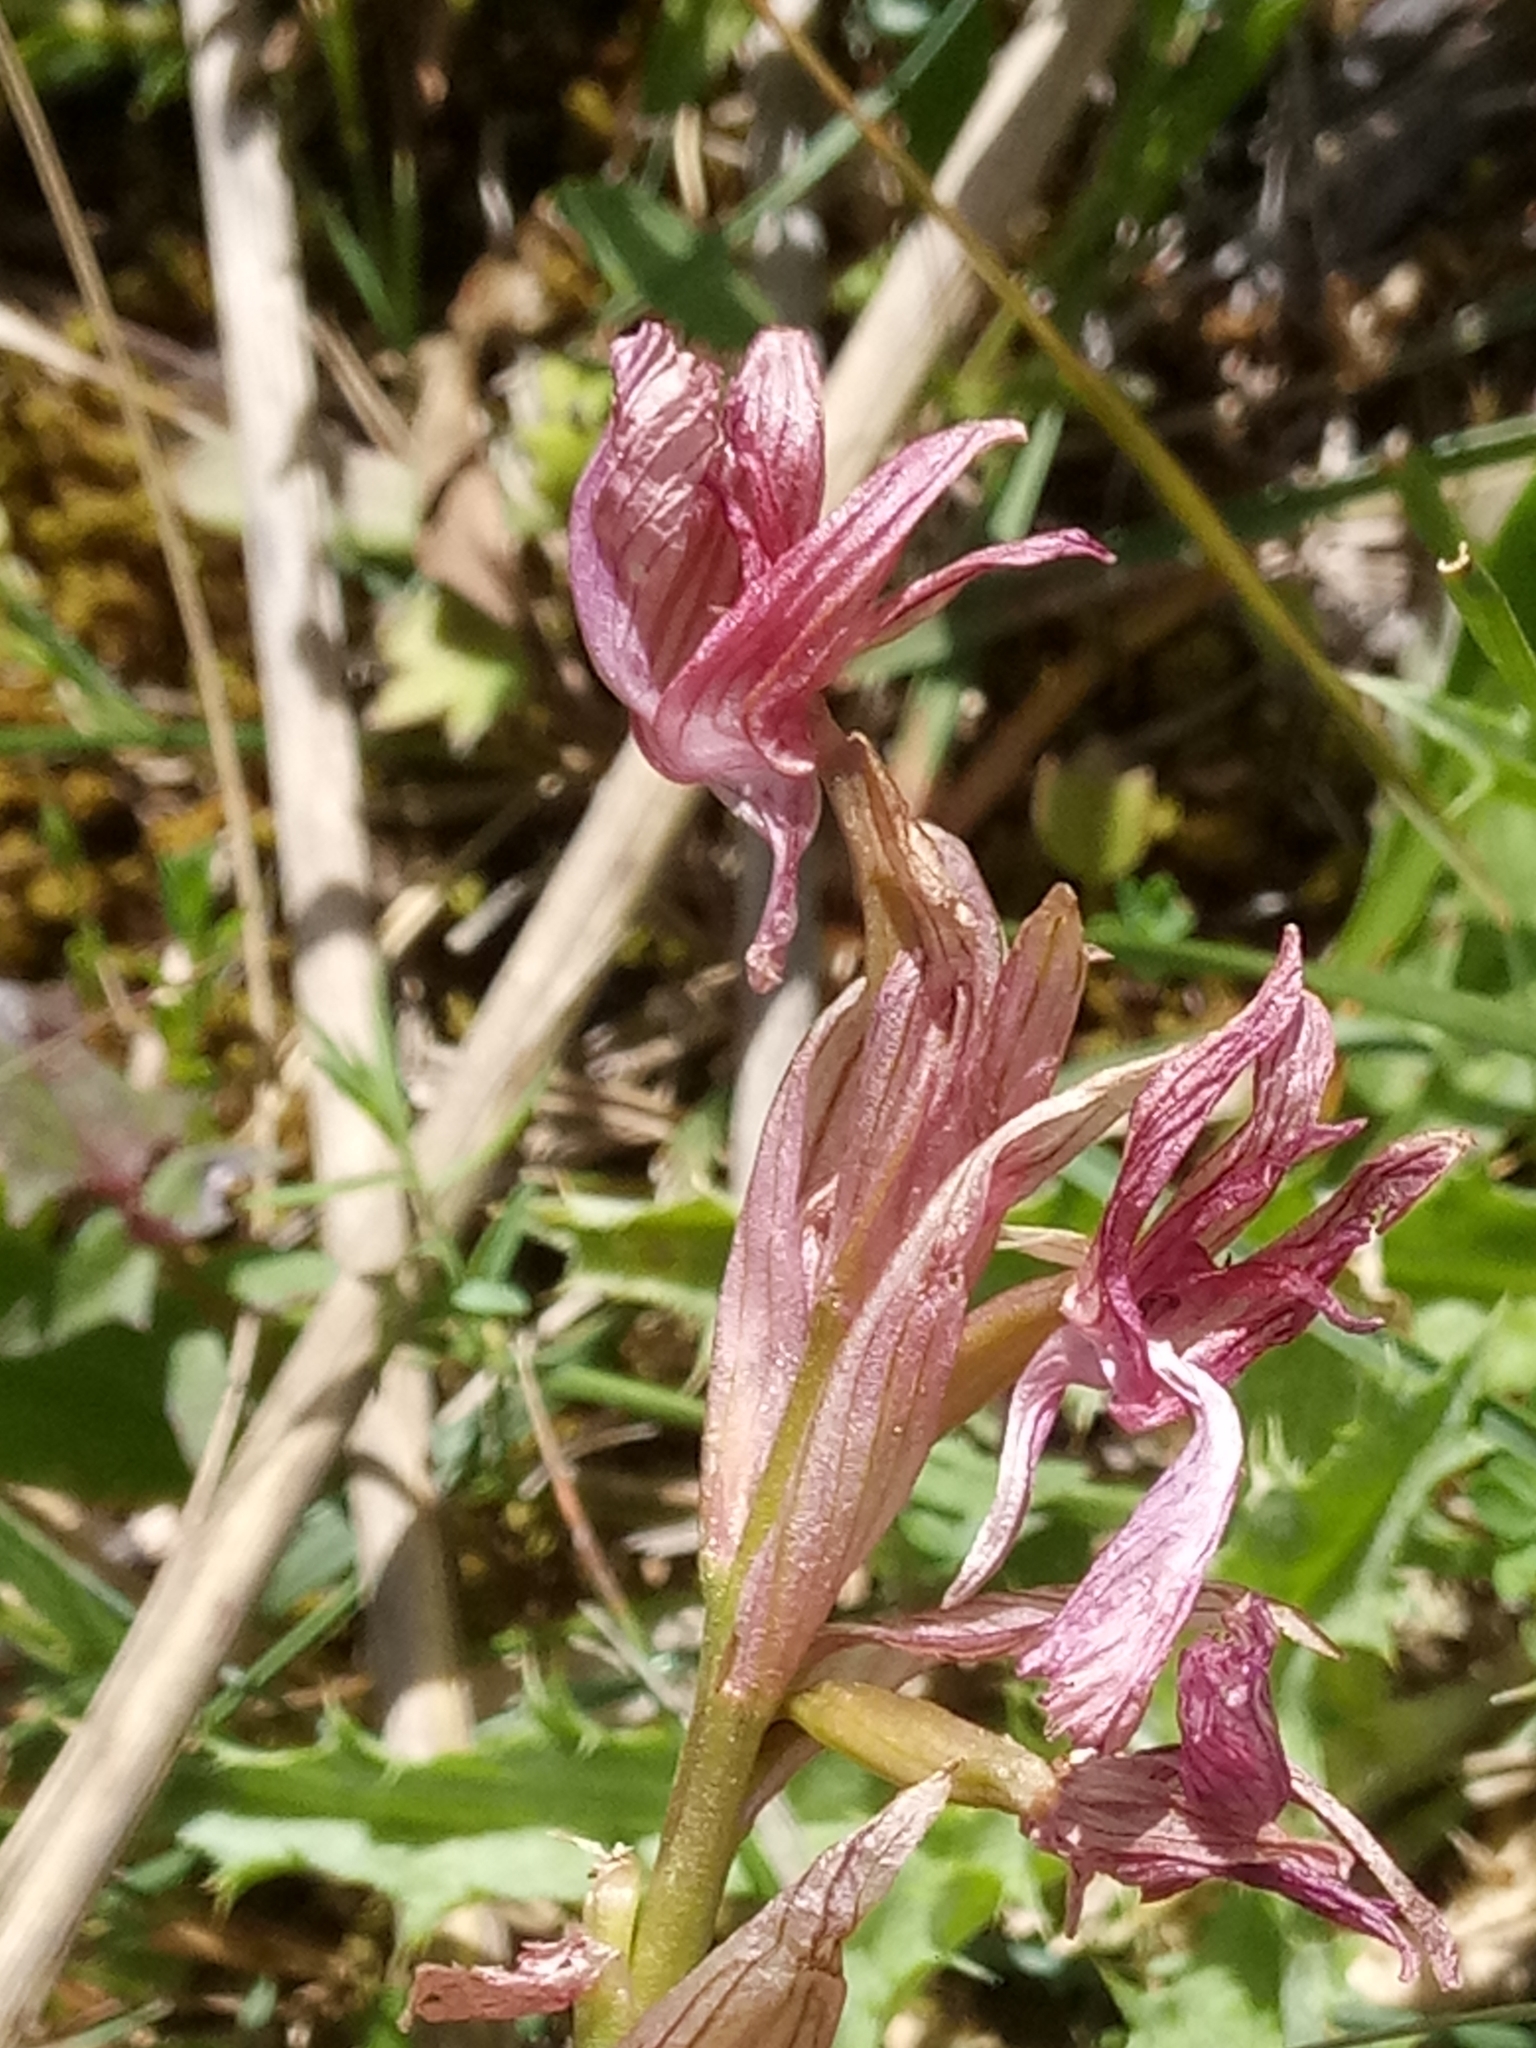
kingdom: Plantae
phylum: Tracheophyta
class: Liliopsida
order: Asparagales
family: Orchidaceae
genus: Anacamptis
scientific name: Anacamptis papilionacea
